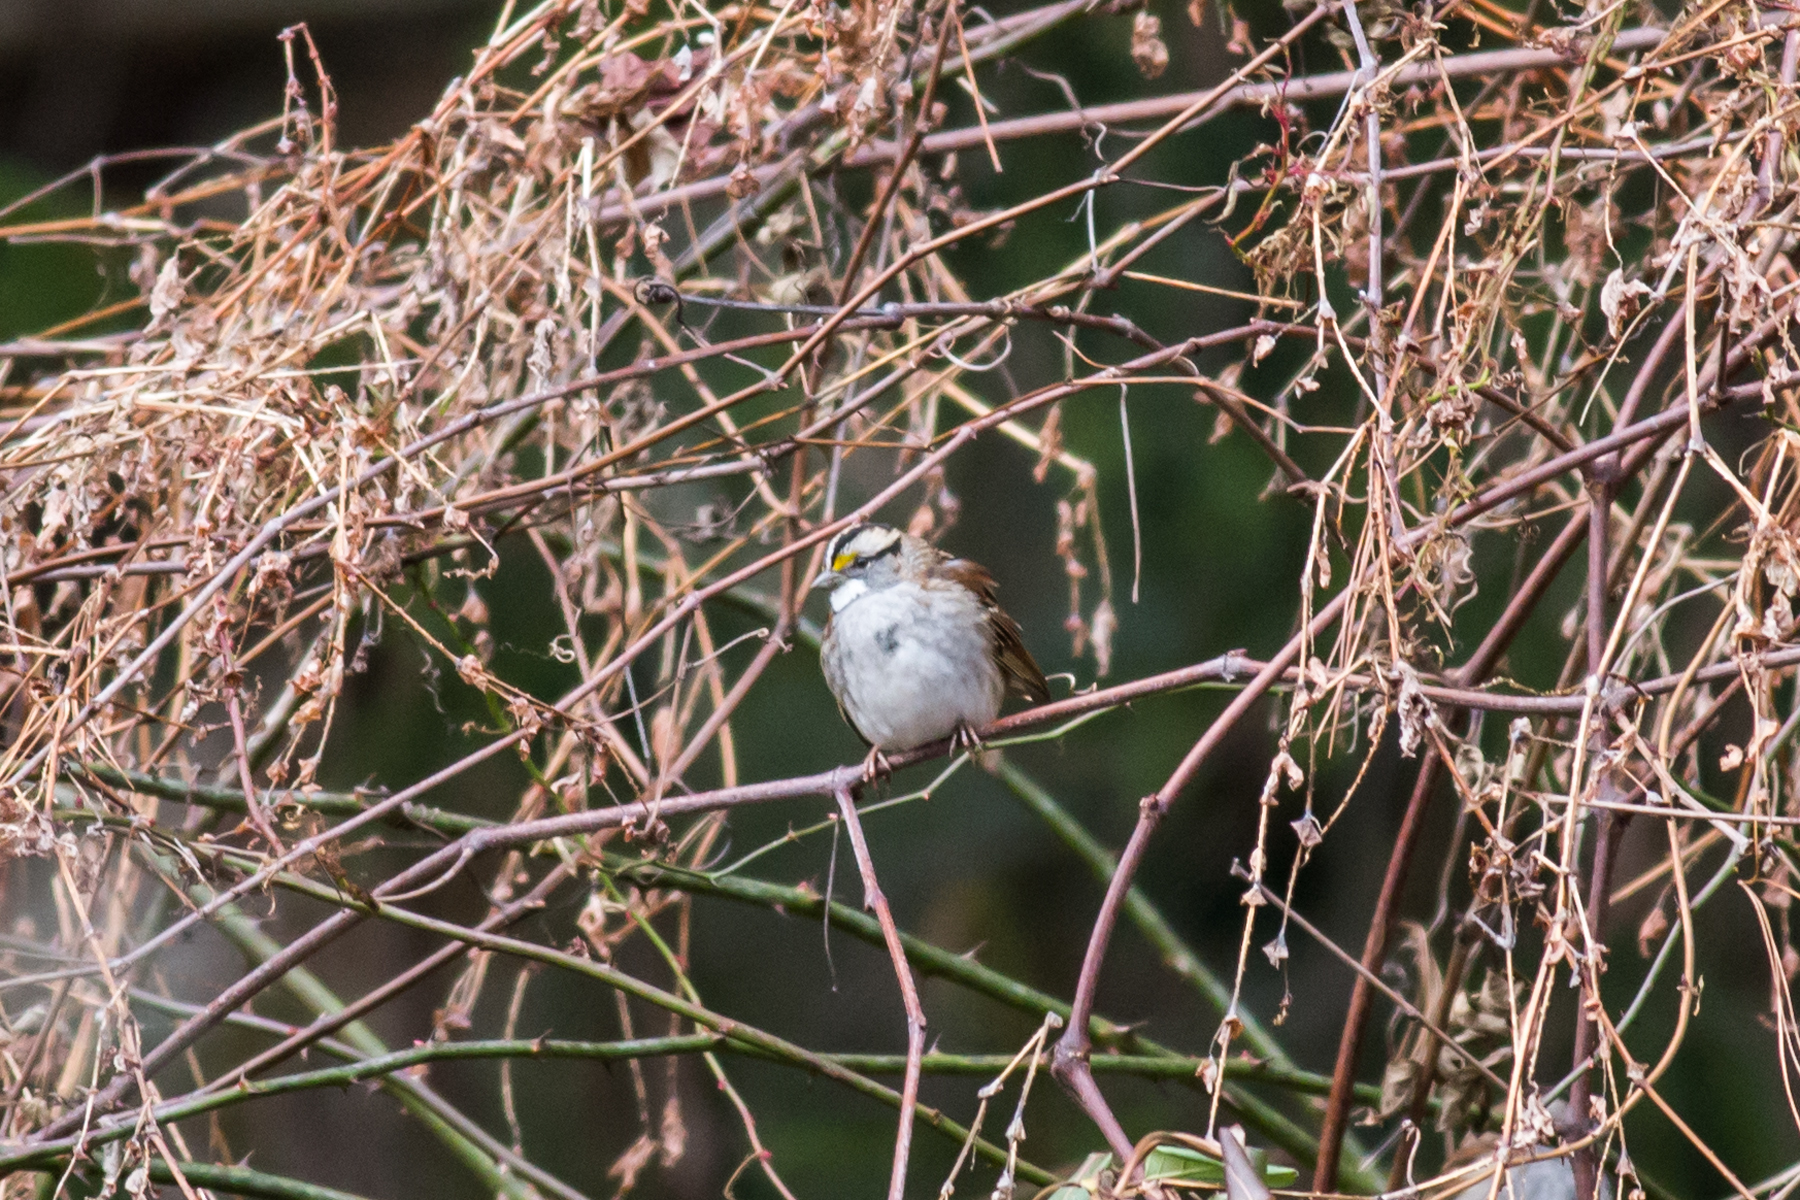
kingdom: Animalia
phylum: Chordata
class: Aves
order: Passeriformes
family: Passerellidae
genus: Zonotrichia
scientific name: Zonotrichia albicollis
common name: White-throated sparrow
